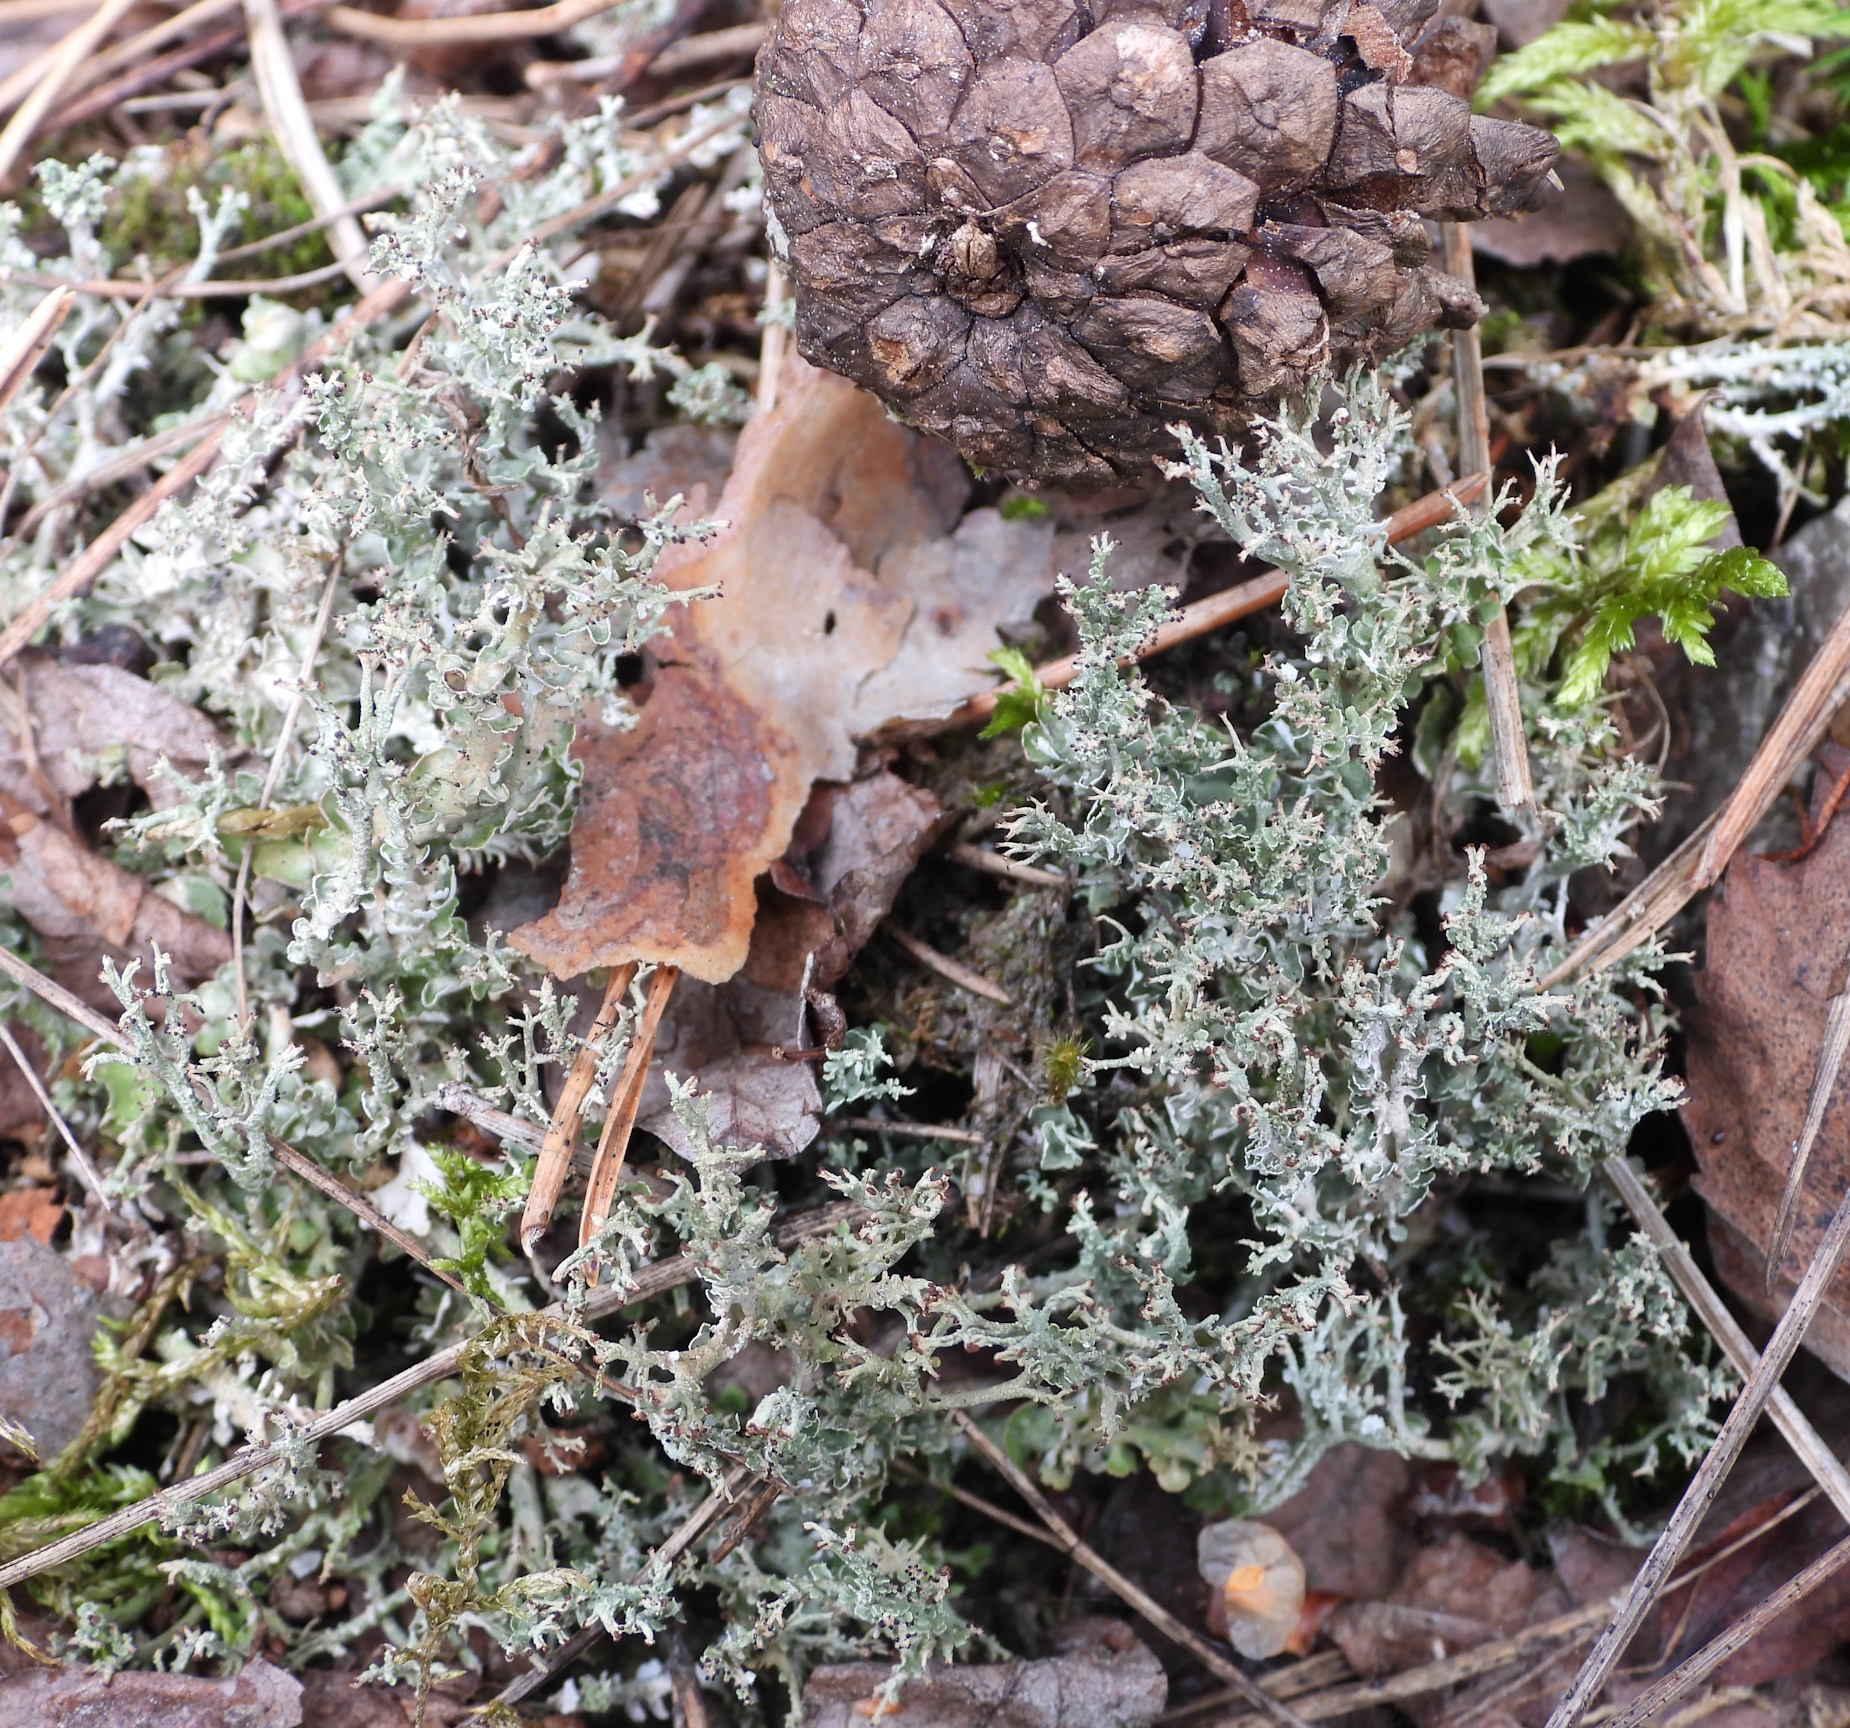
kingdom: Fungi
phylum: Ascomycota
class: Lecanoromycetes
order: Lecanorales
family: Cladoniaceae
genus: Cladonia
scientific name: Cladonia furcata
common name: Many-forked cladonia
